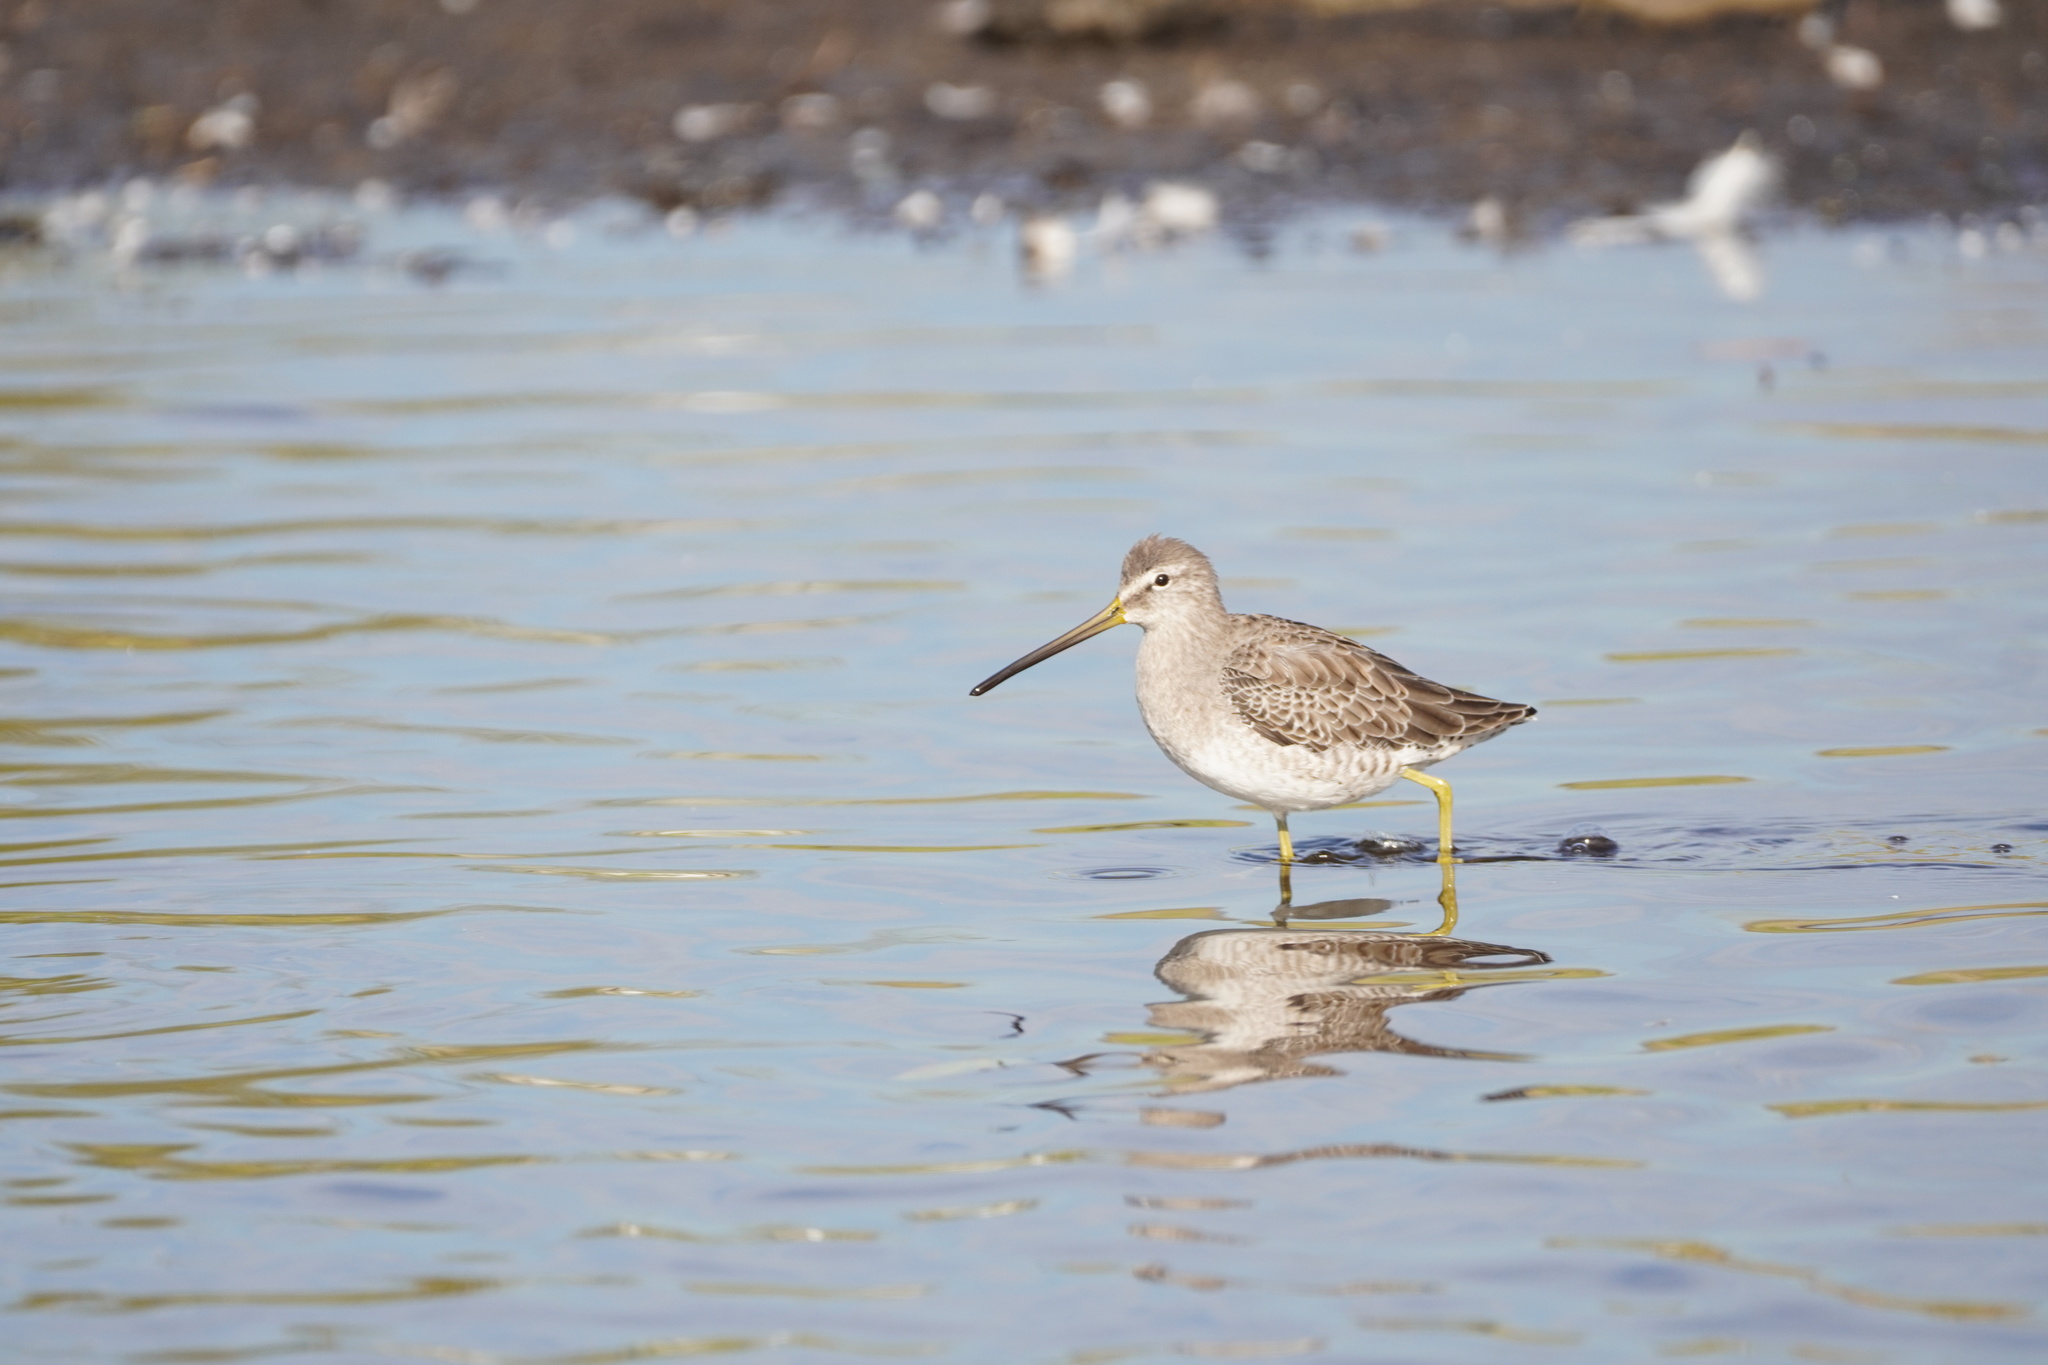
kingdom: Animalia
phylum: Chordata
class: Aves
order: Charadriiformes
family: Scolopacidae
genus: Limnodromus
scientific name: Limnodromus scolopaceus
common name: Long-billed dowitcher
